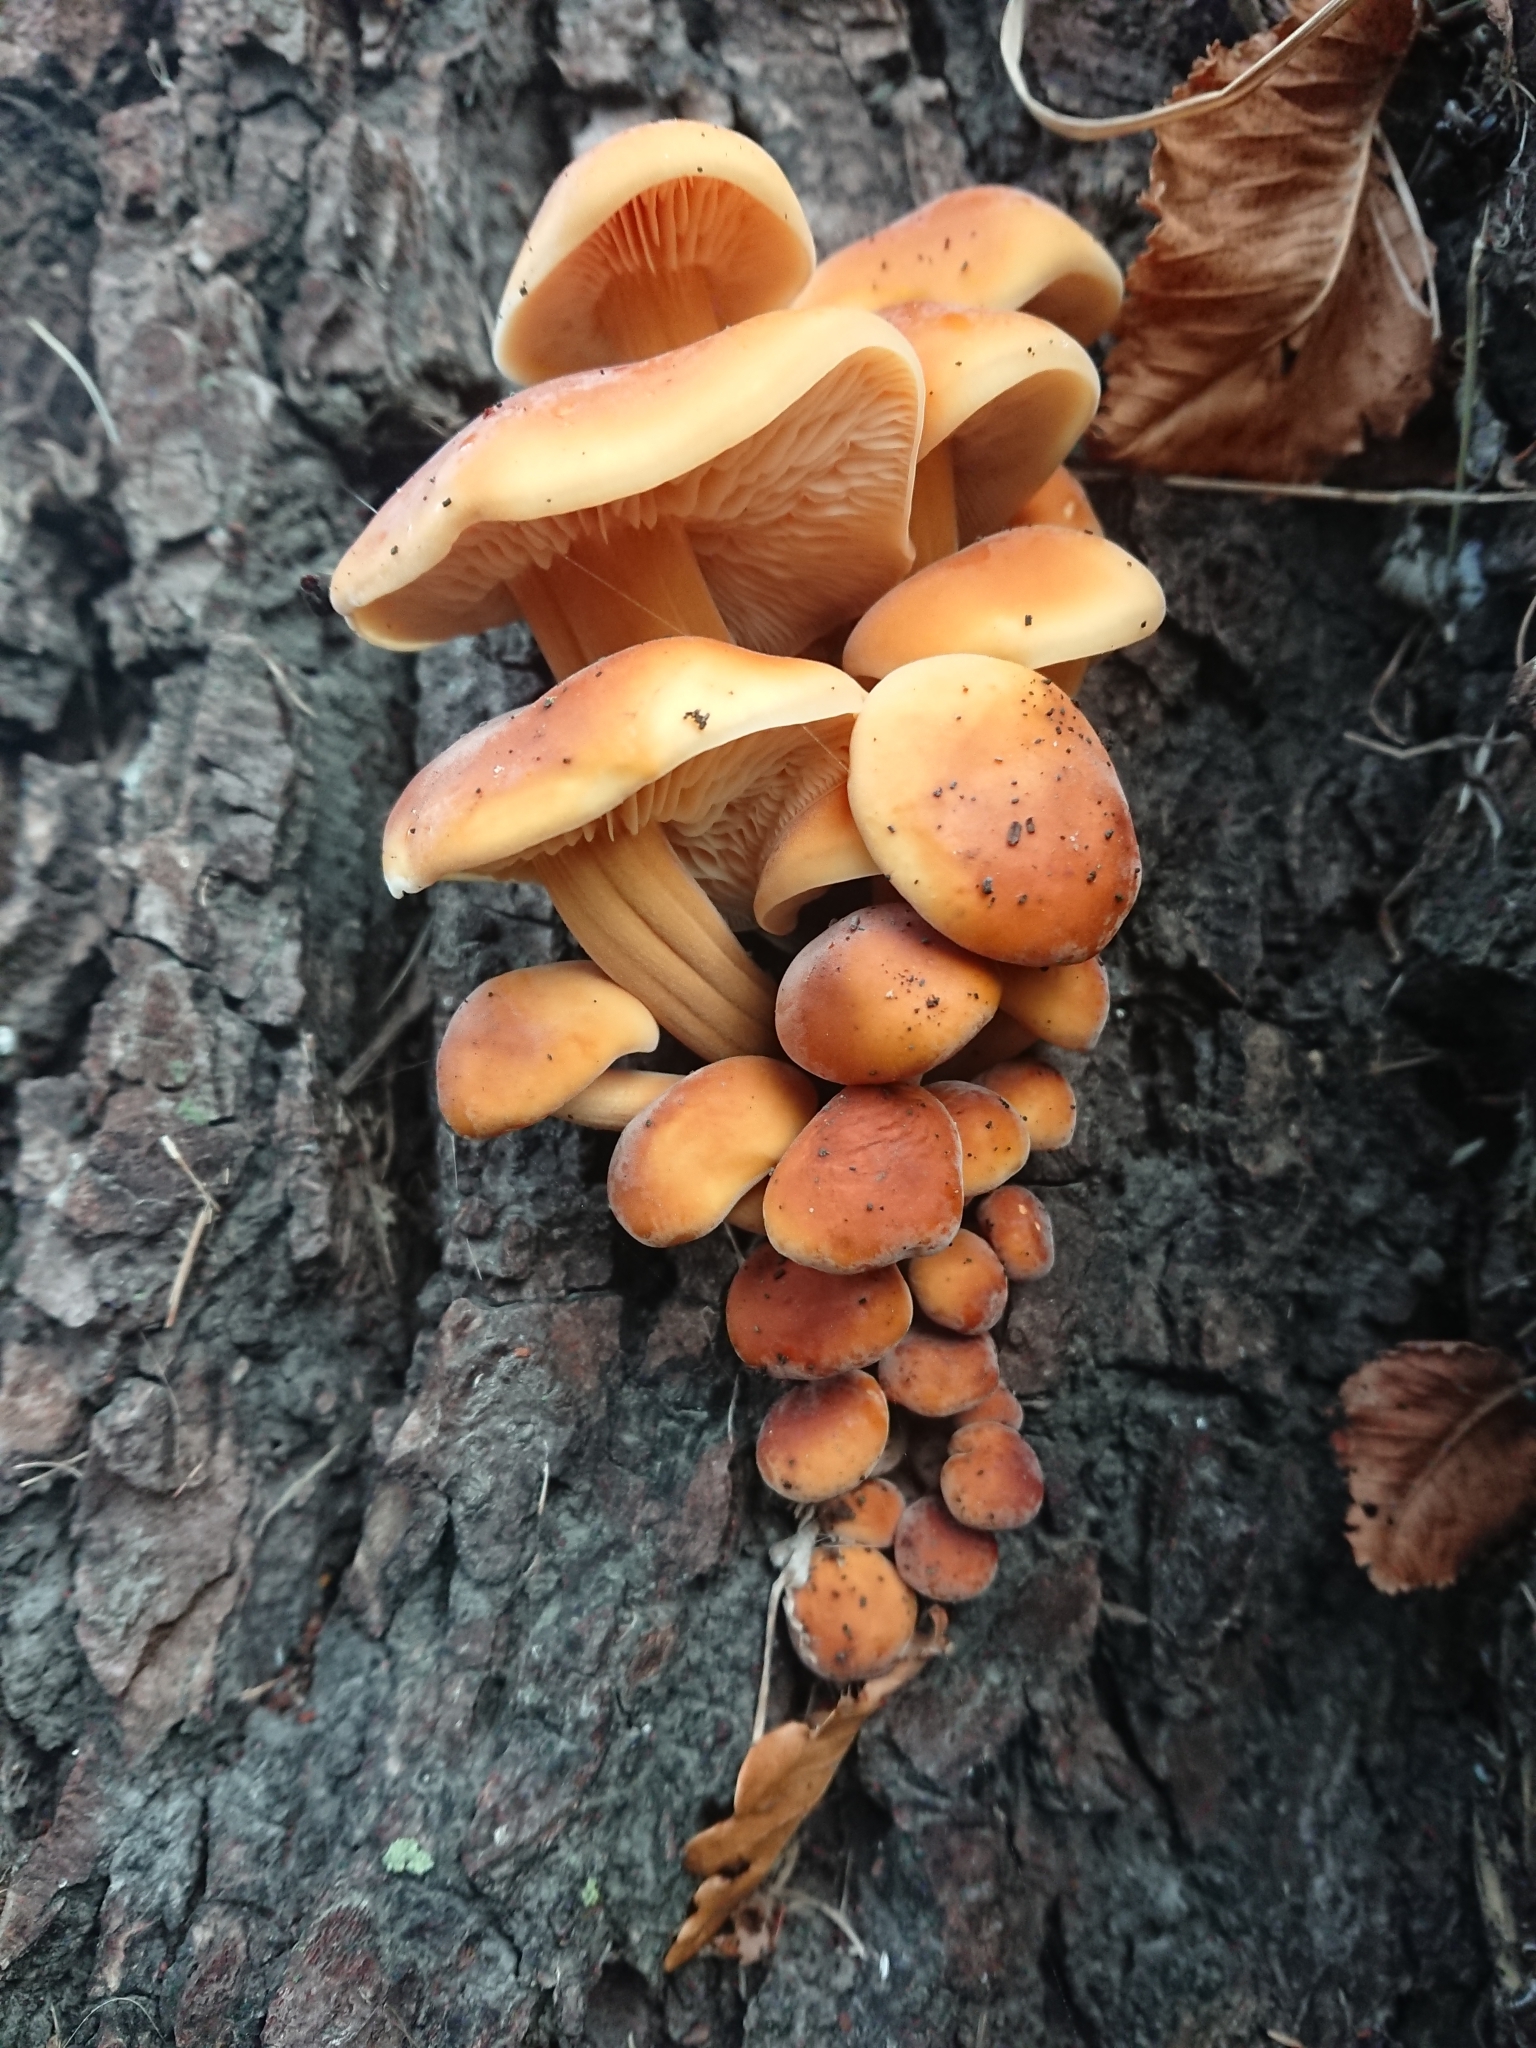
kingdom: Fungi
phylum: Basidiomycota
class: Agaricomycetes
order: Agaricales
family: Physalacriaceae
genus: Flammulina
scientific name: Flammulina velutipes
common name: Velvet shank
